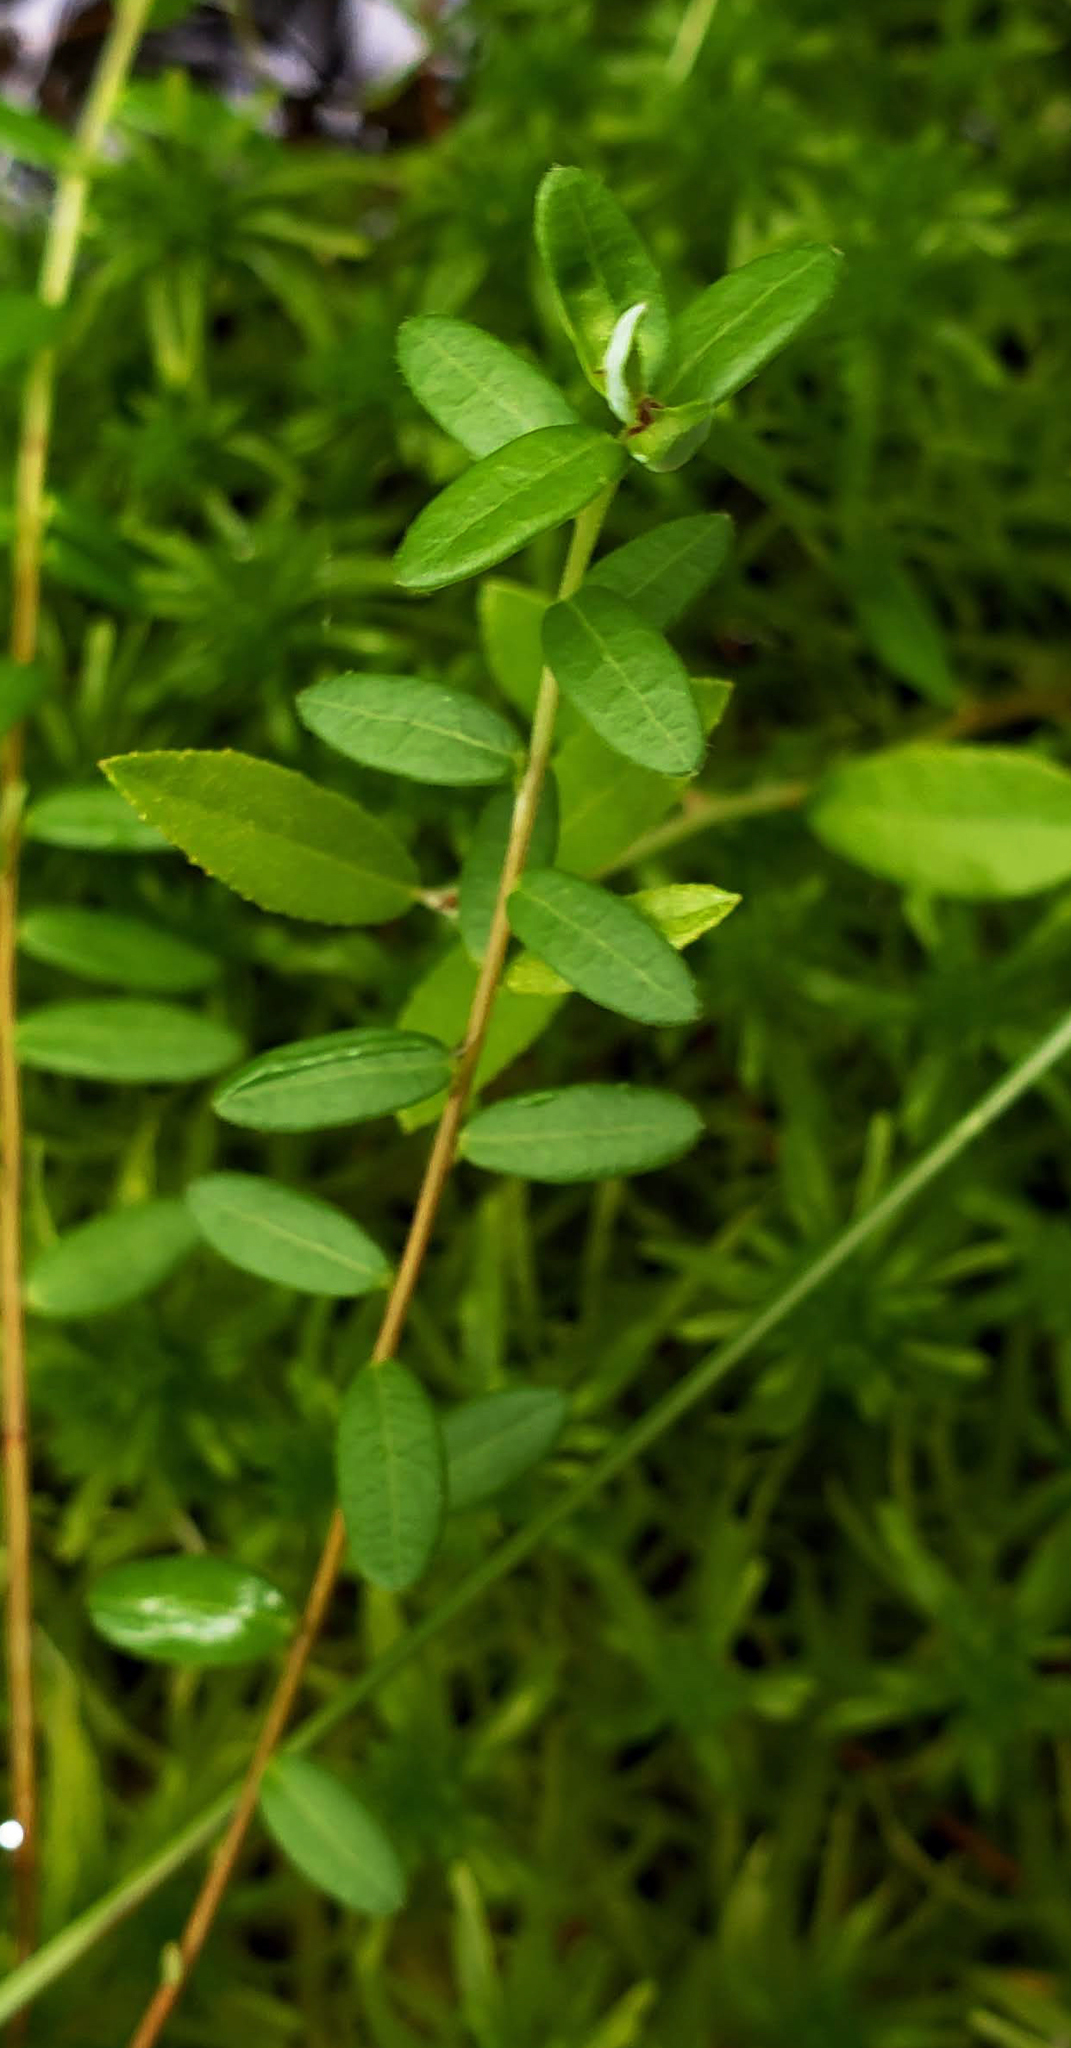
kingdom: Plantae
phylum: Tracheophyta
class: Magnoliopsida
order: Ericales
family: Ericaceae
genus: Vaccinium
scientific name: Vaccinium macrocarpon
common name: American cranberry
